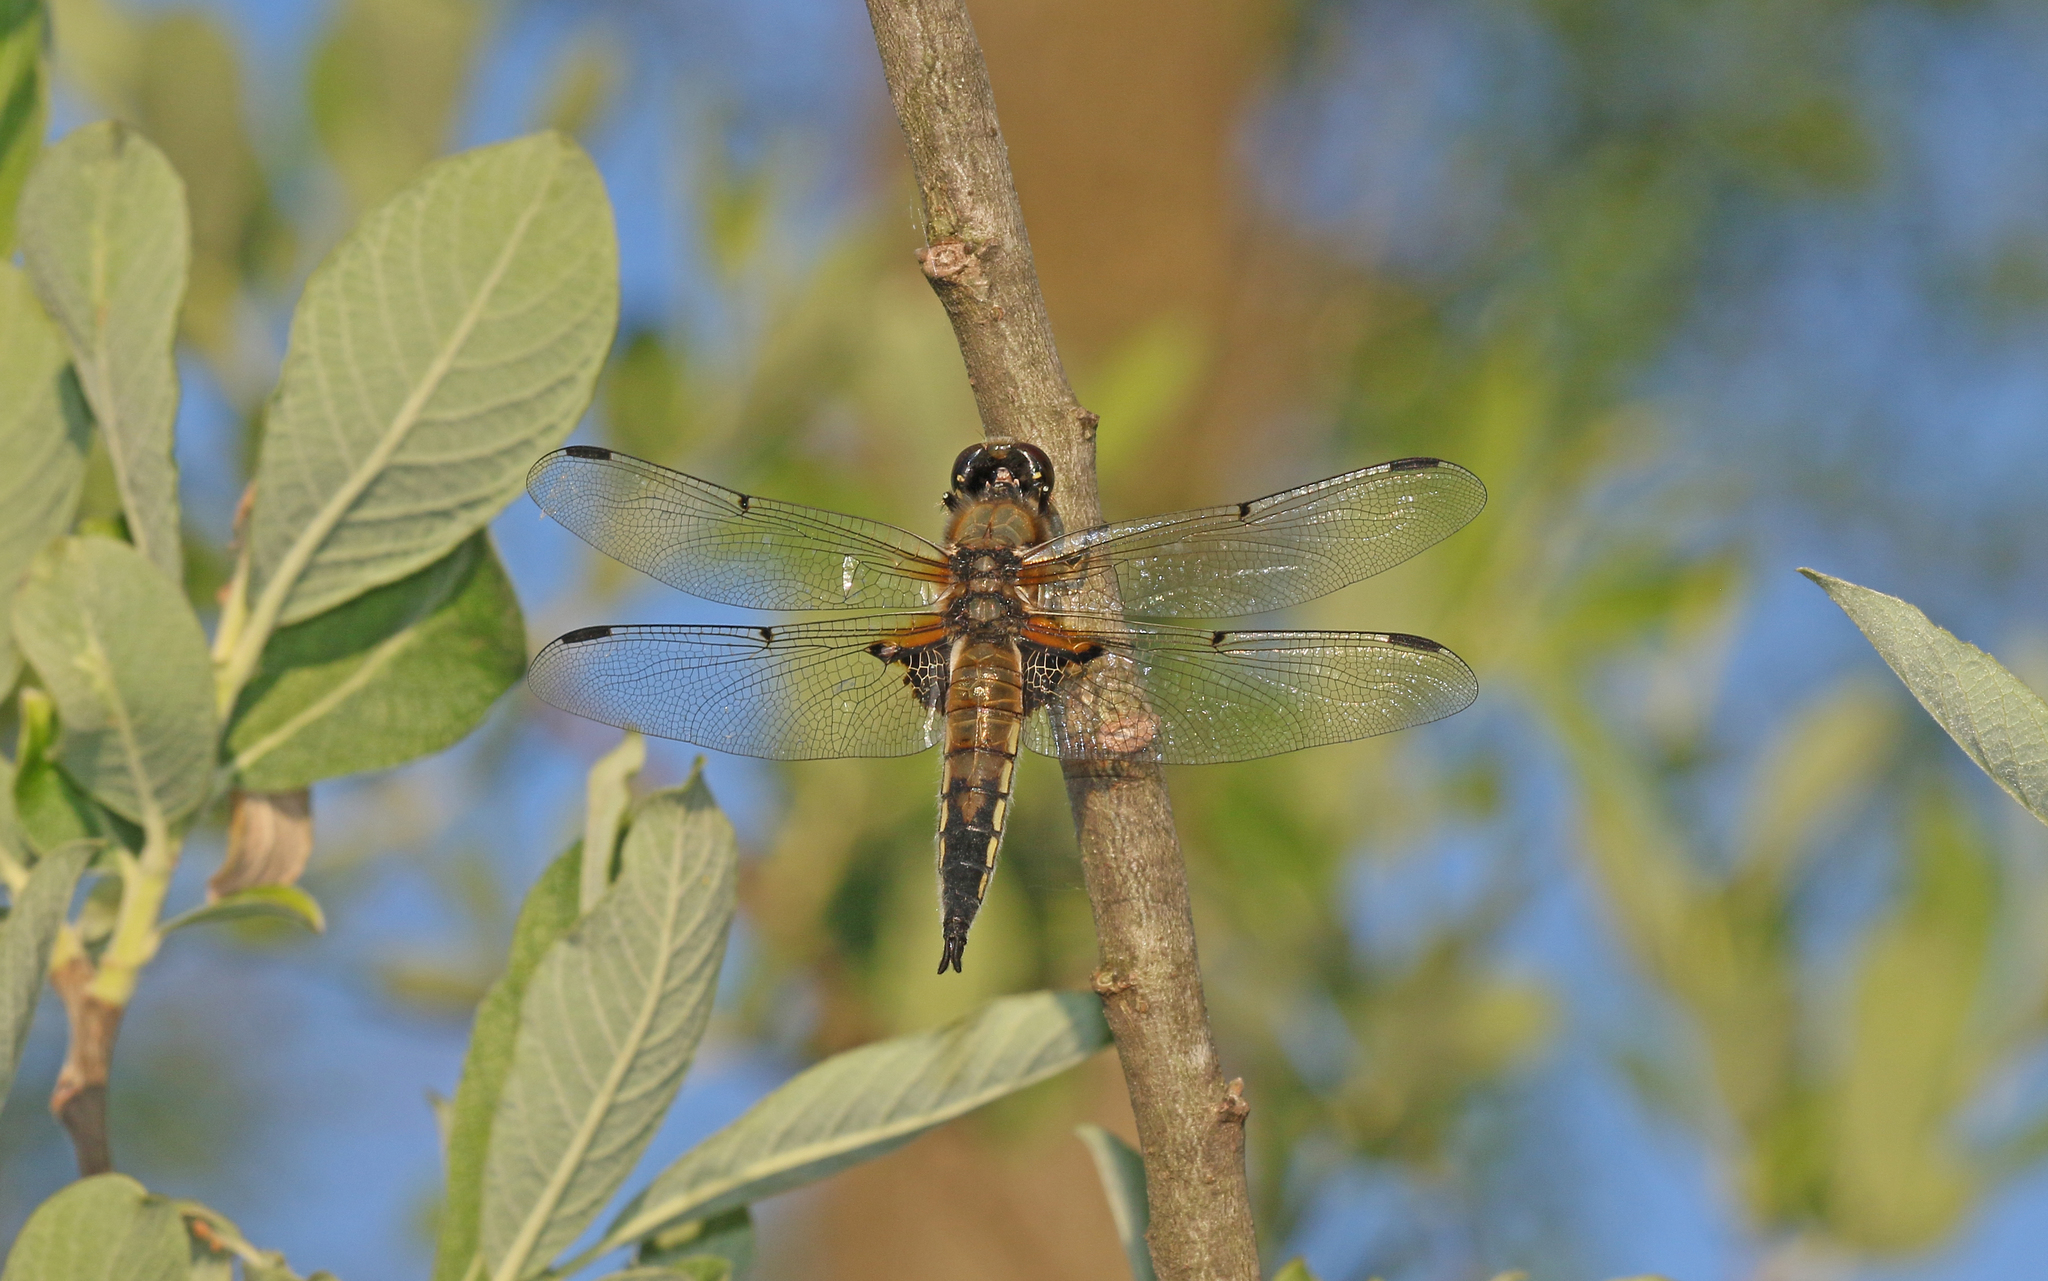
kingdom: Animalia
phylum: Arthropoda
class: Insecta
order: Odonata
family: Libellulidae
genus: Libellula
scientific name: Libellula quadrimaculata
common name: Four-spotted chaser
